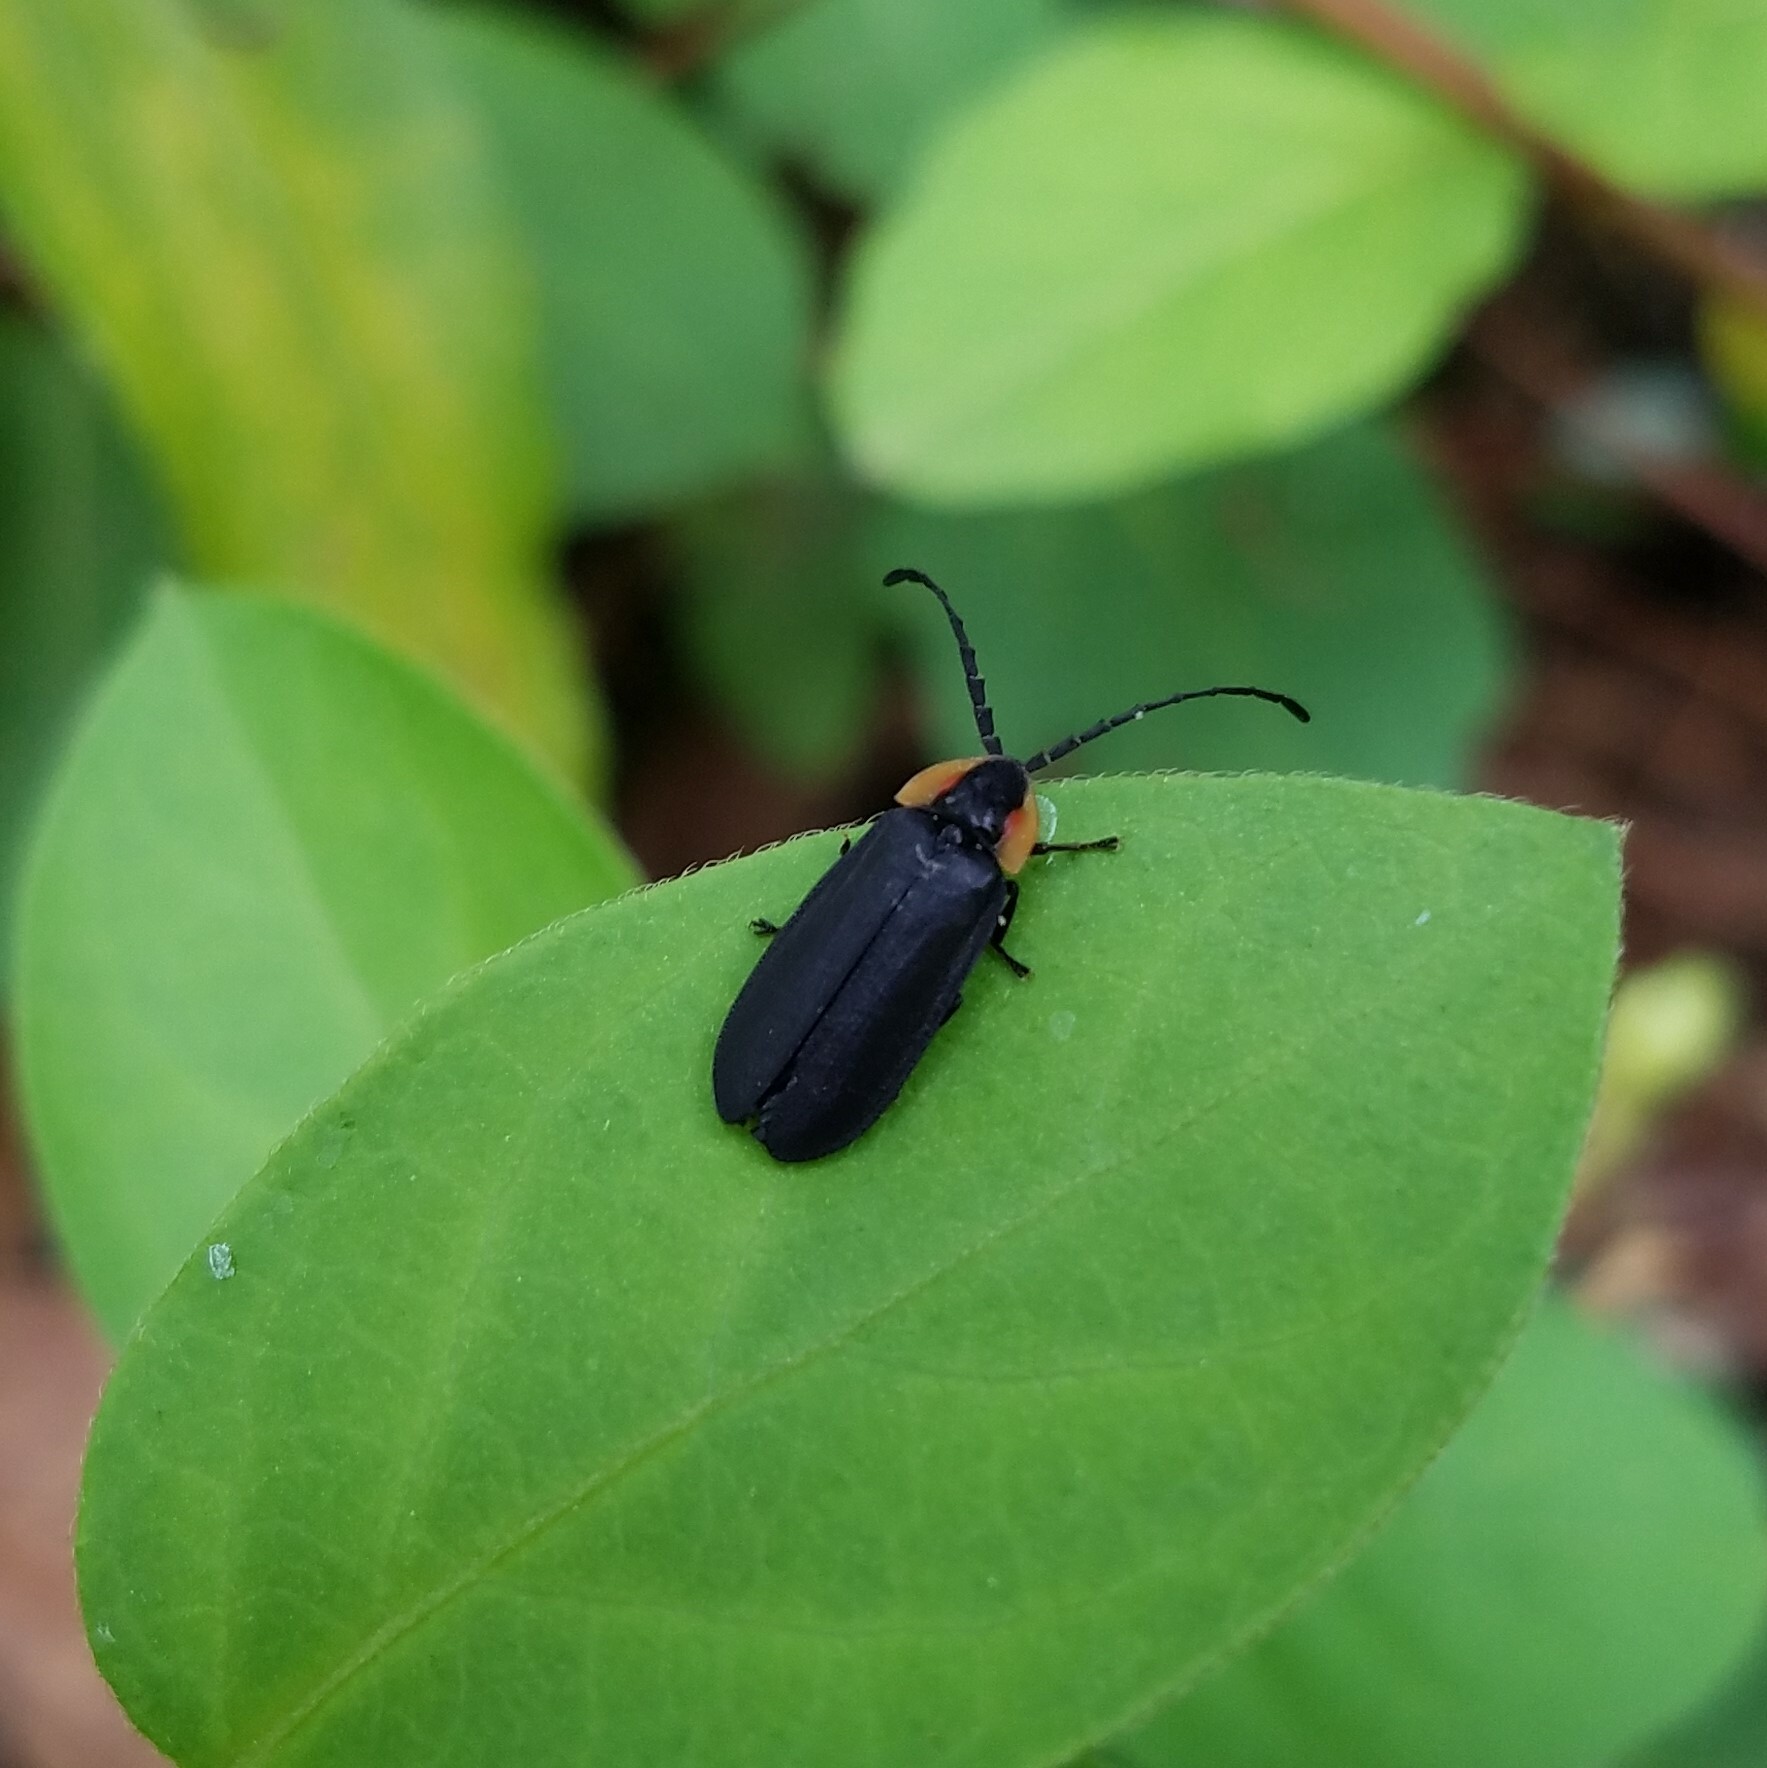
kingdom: Animalia
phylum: Arthropoda
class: Insecta
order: Coleoptera
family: Lampyridae
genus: Lucidota
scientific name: Lucidota atra
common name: Black firefly
